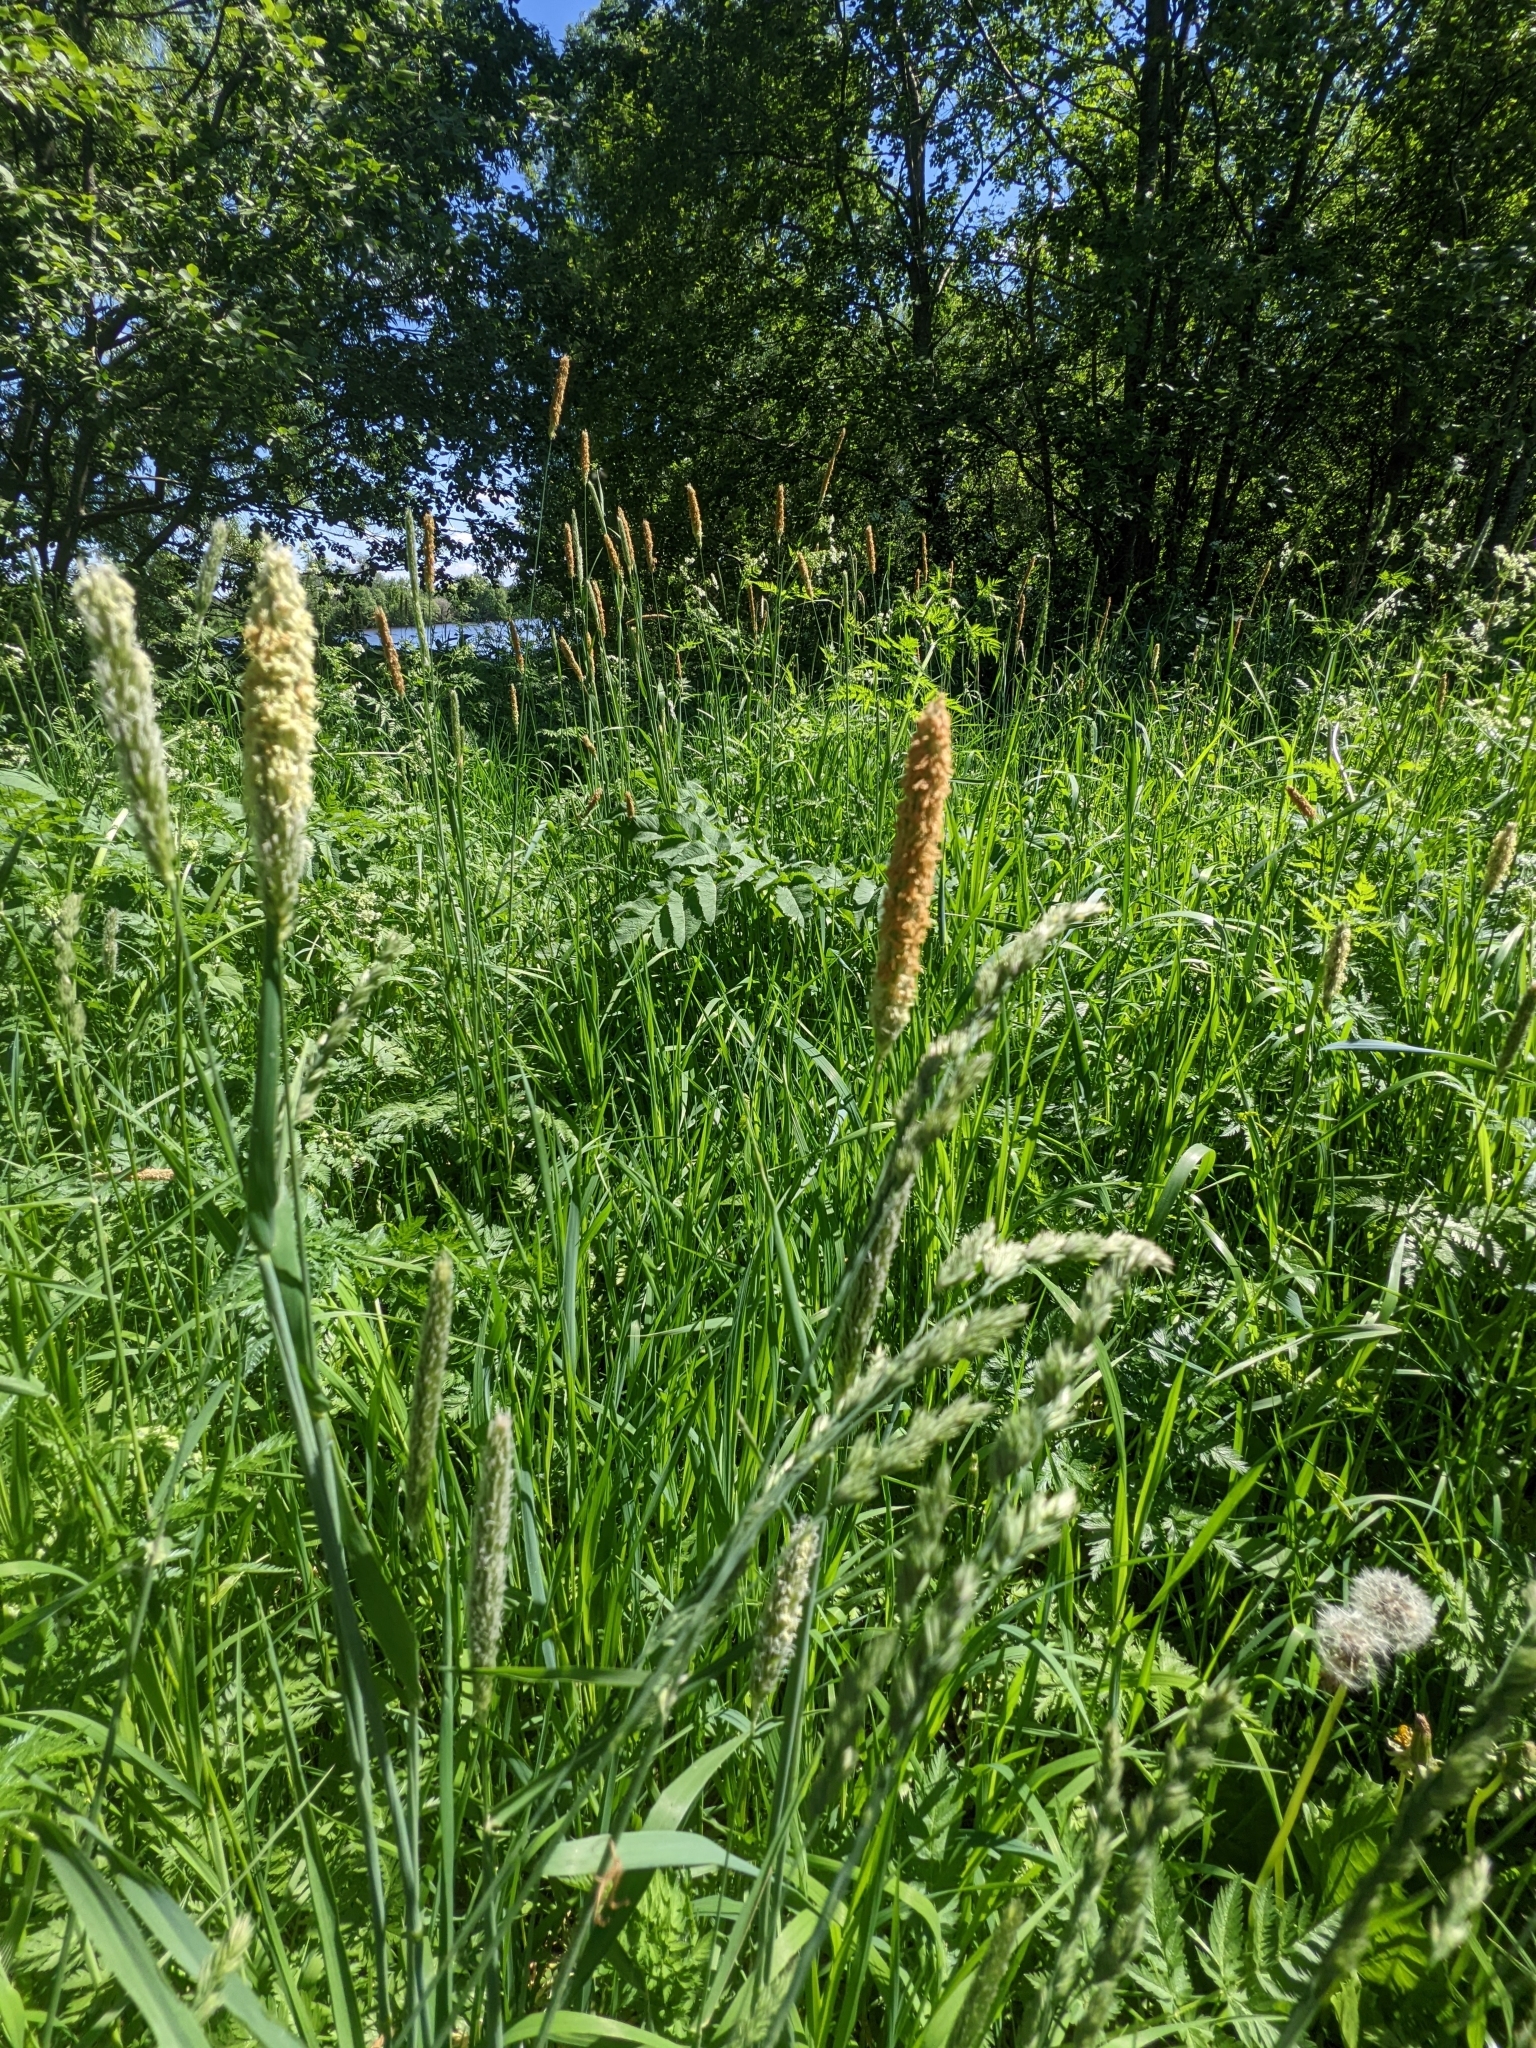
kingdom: Plantae
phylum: Tracheophyta
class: Liliopsida
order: Poales
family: Poaceae
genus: Alopecurus
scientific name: Alopecurus pratensis
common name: Meadow foxtail
